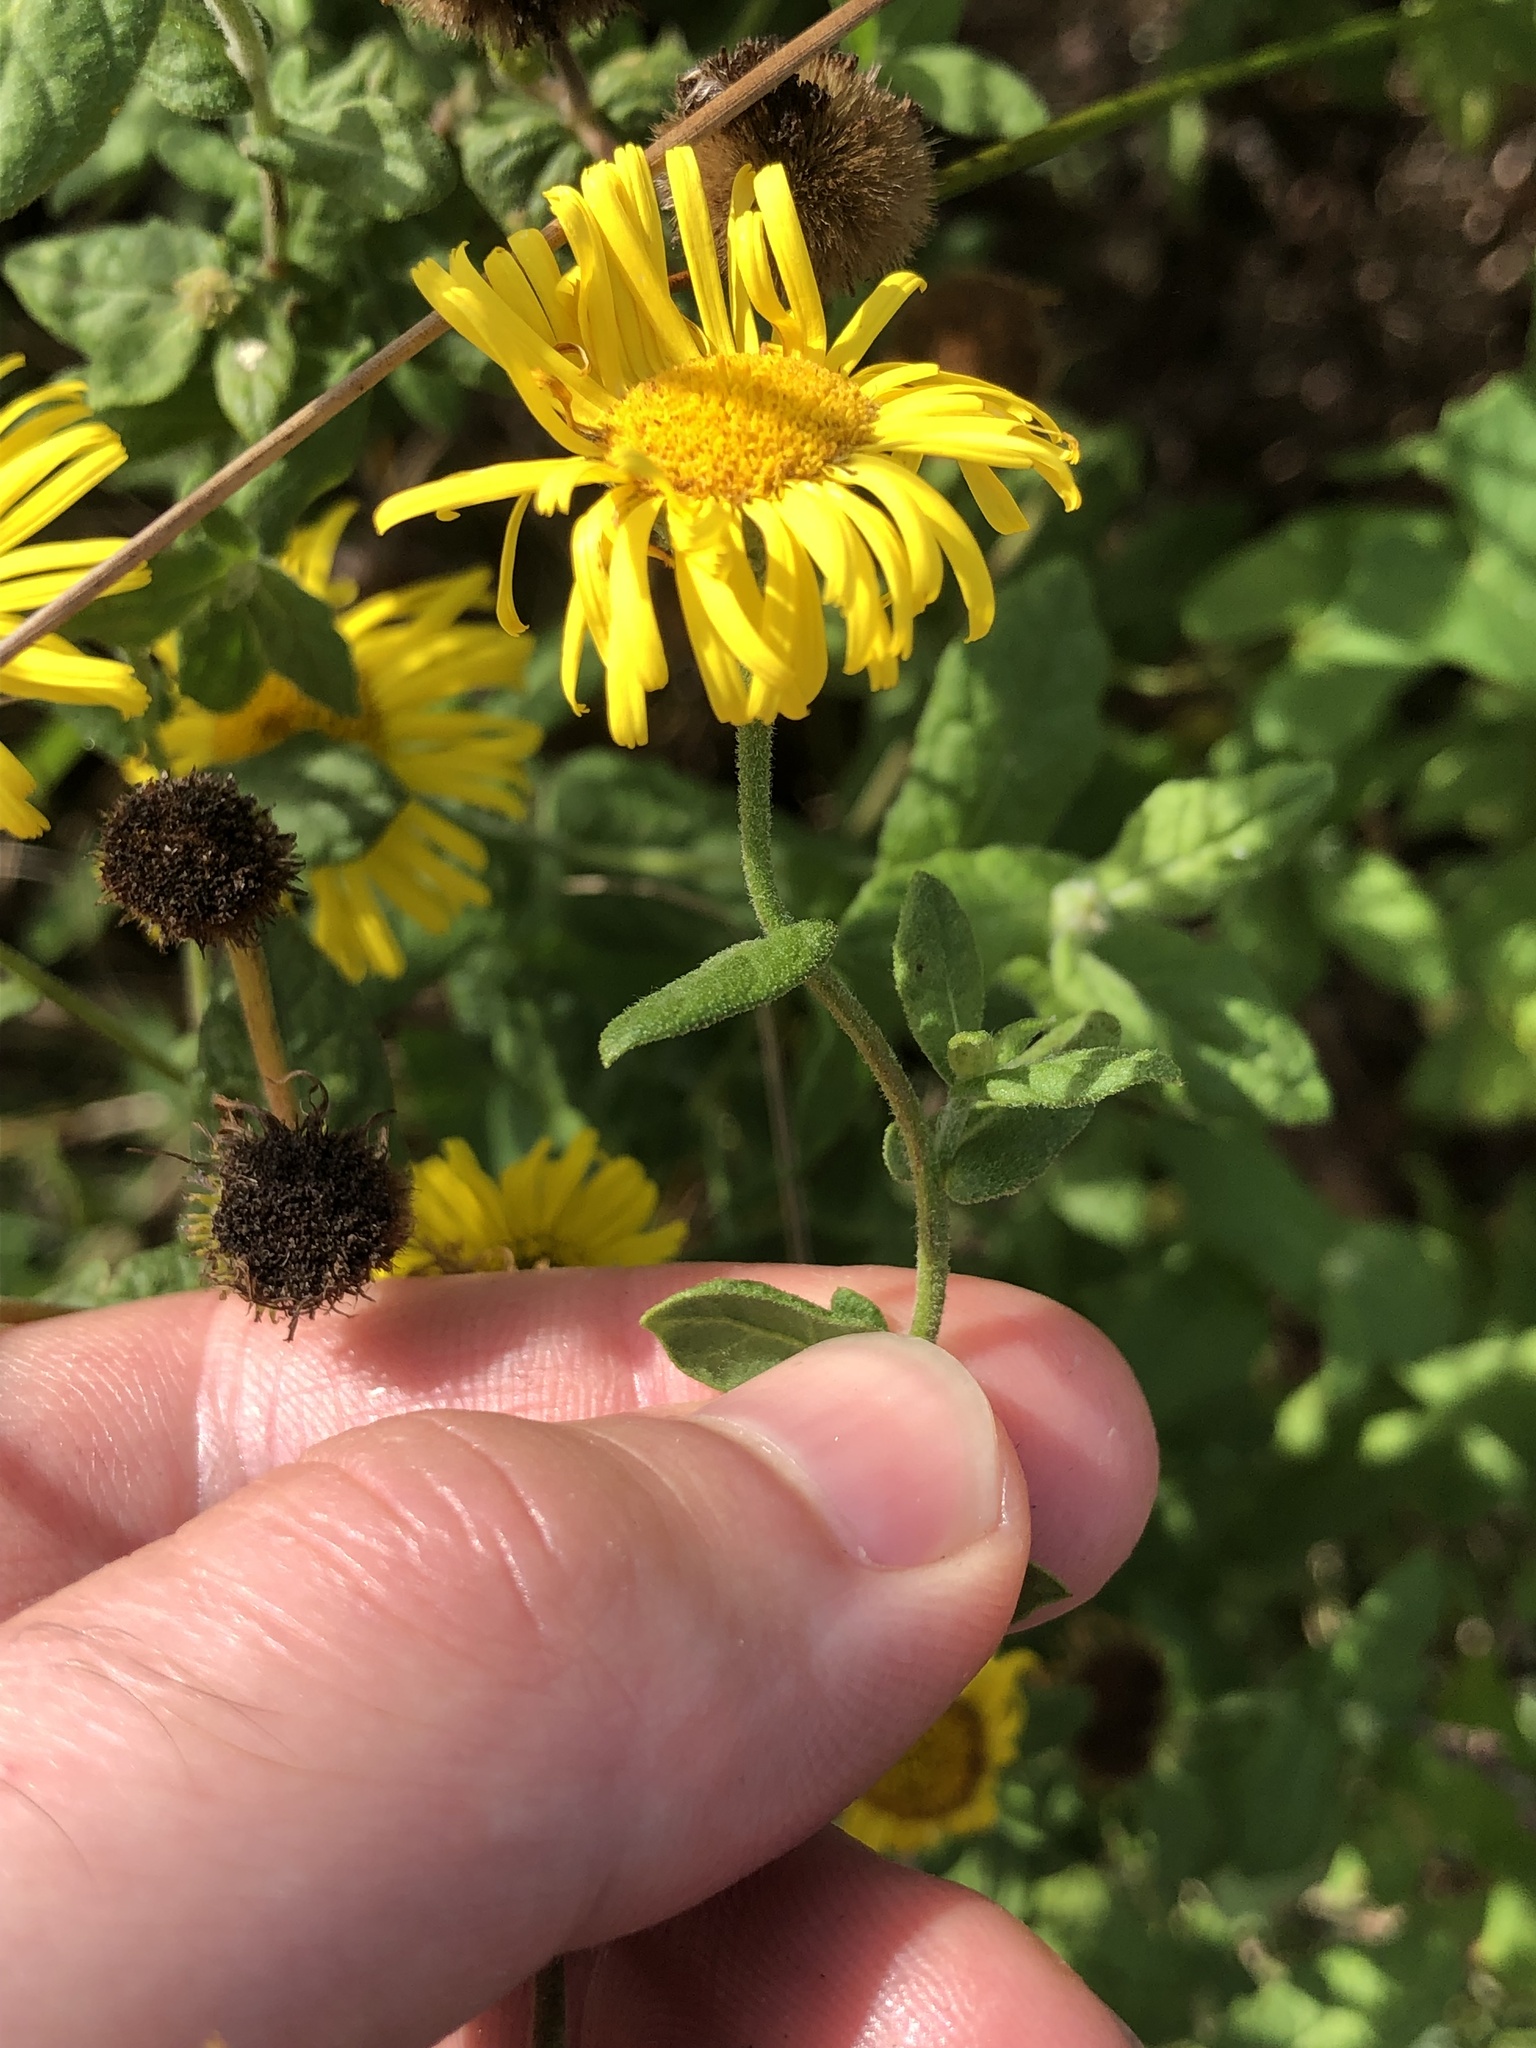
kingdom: Plantae
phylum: Tracheophyta
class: Magnoliopsida
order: Asterales
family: Asteraceae
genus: Pulicaria
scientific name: Pulicaria dysenterica
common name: Common fleabane
